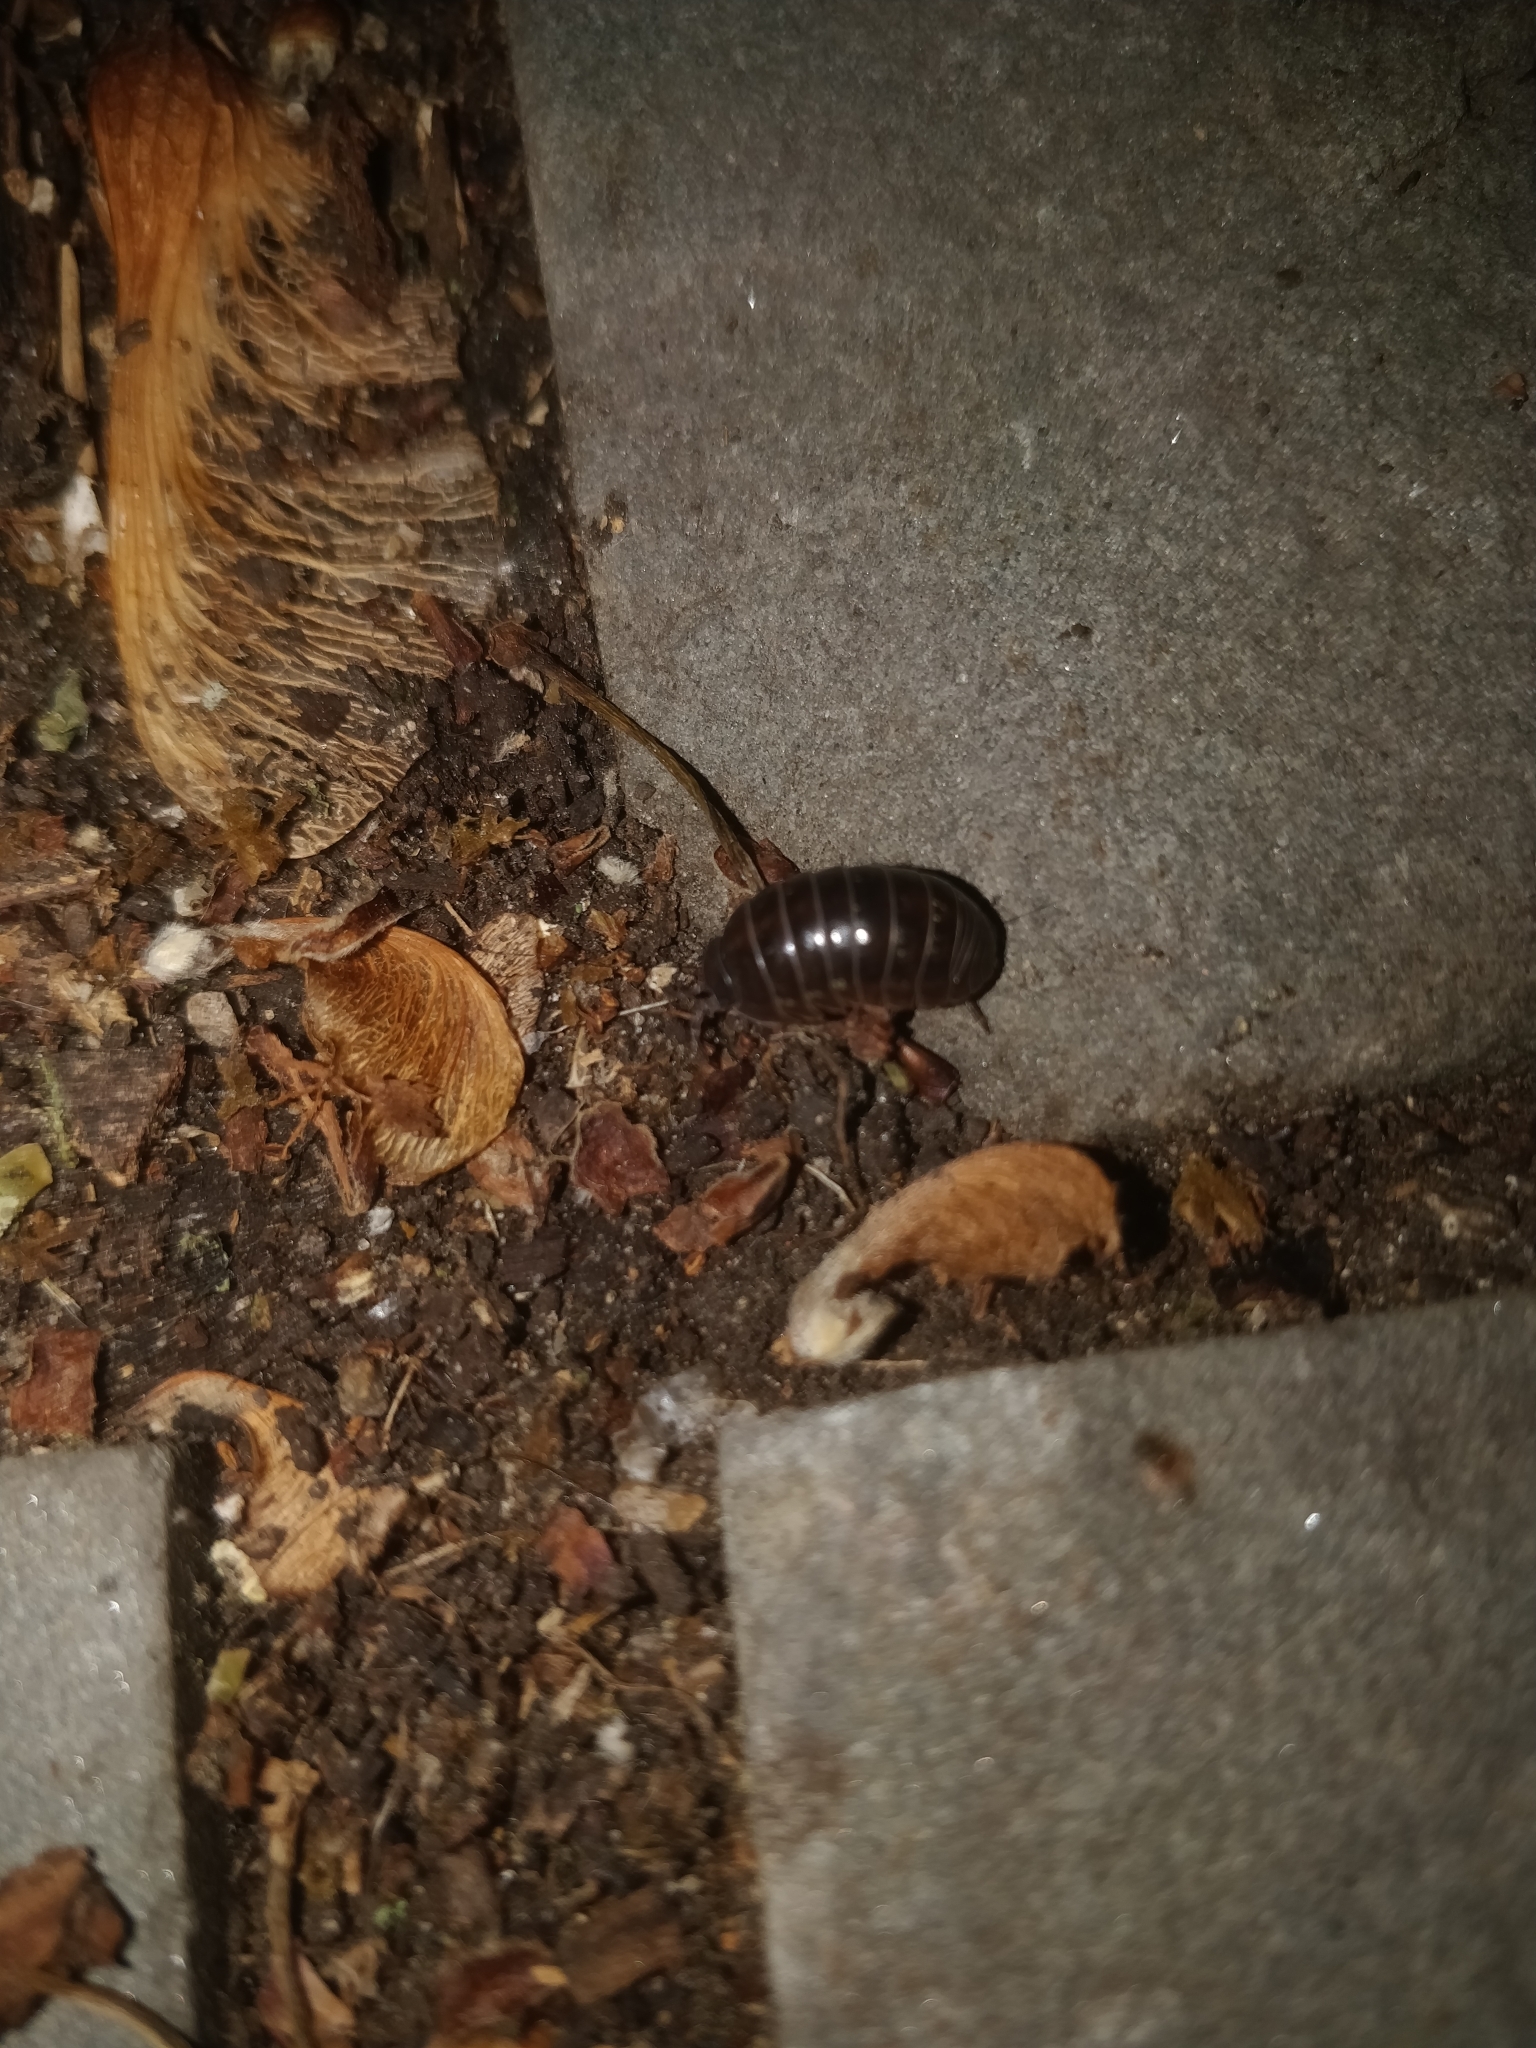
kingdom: Animalia
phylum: Arthropoda
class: Malacostraca
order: Isopoda
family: Armadillidiidae
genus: Armadillidium
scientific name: Armadillidium vulgare
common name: Common pill woodlouse
